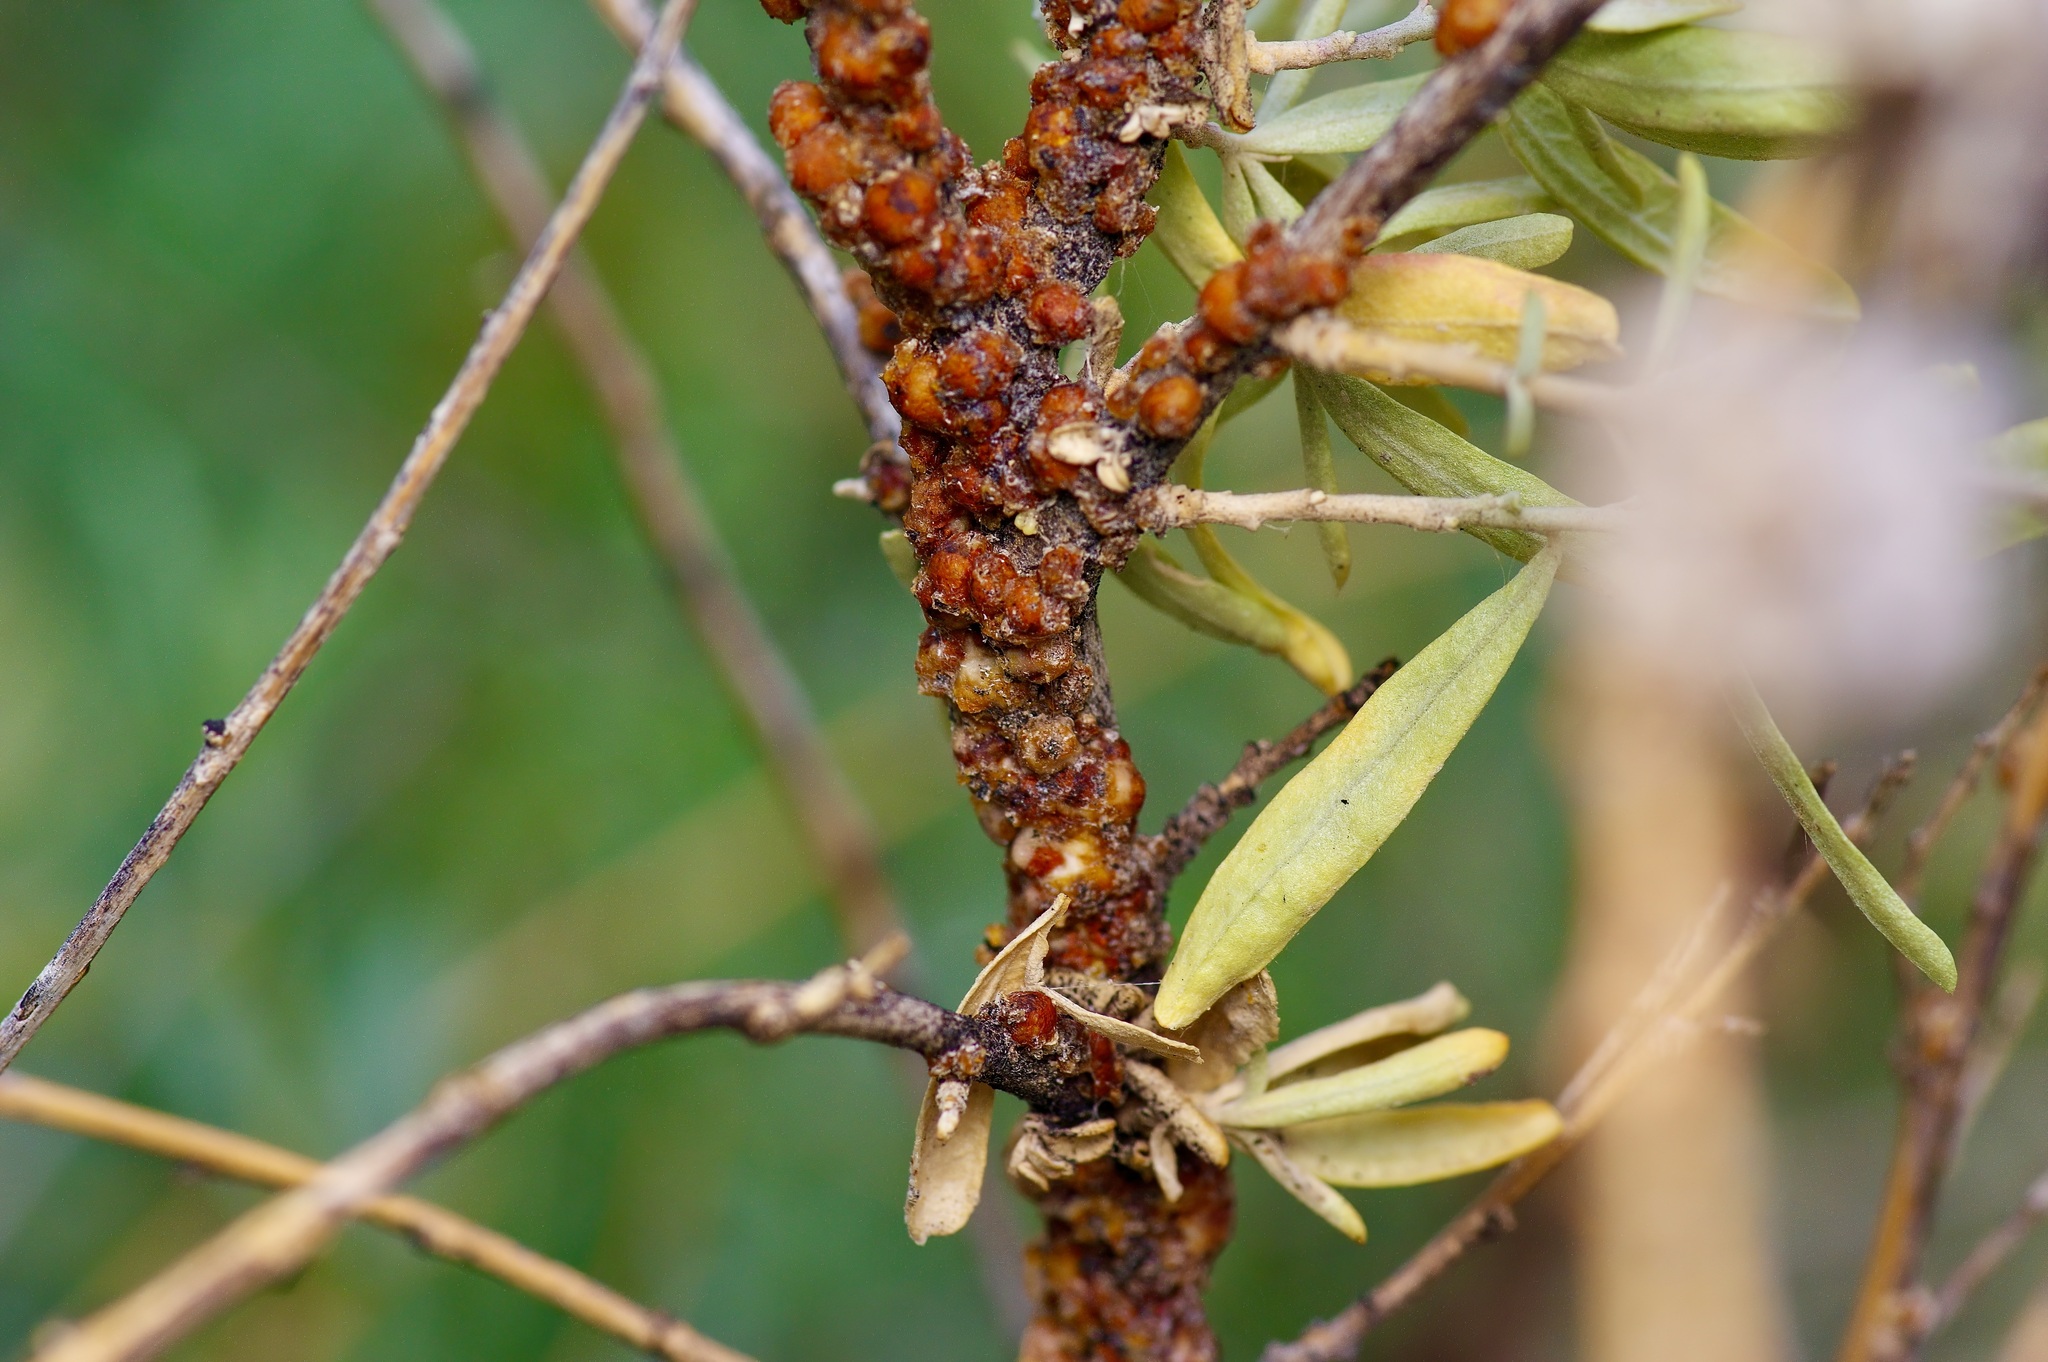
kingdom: Animalia
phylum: Arthropoda
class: Insecta
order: Hemiptera
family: Coccidae
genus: Ceroplastes
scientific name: Ceroplastes irregularis
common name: Irregular wax scale
